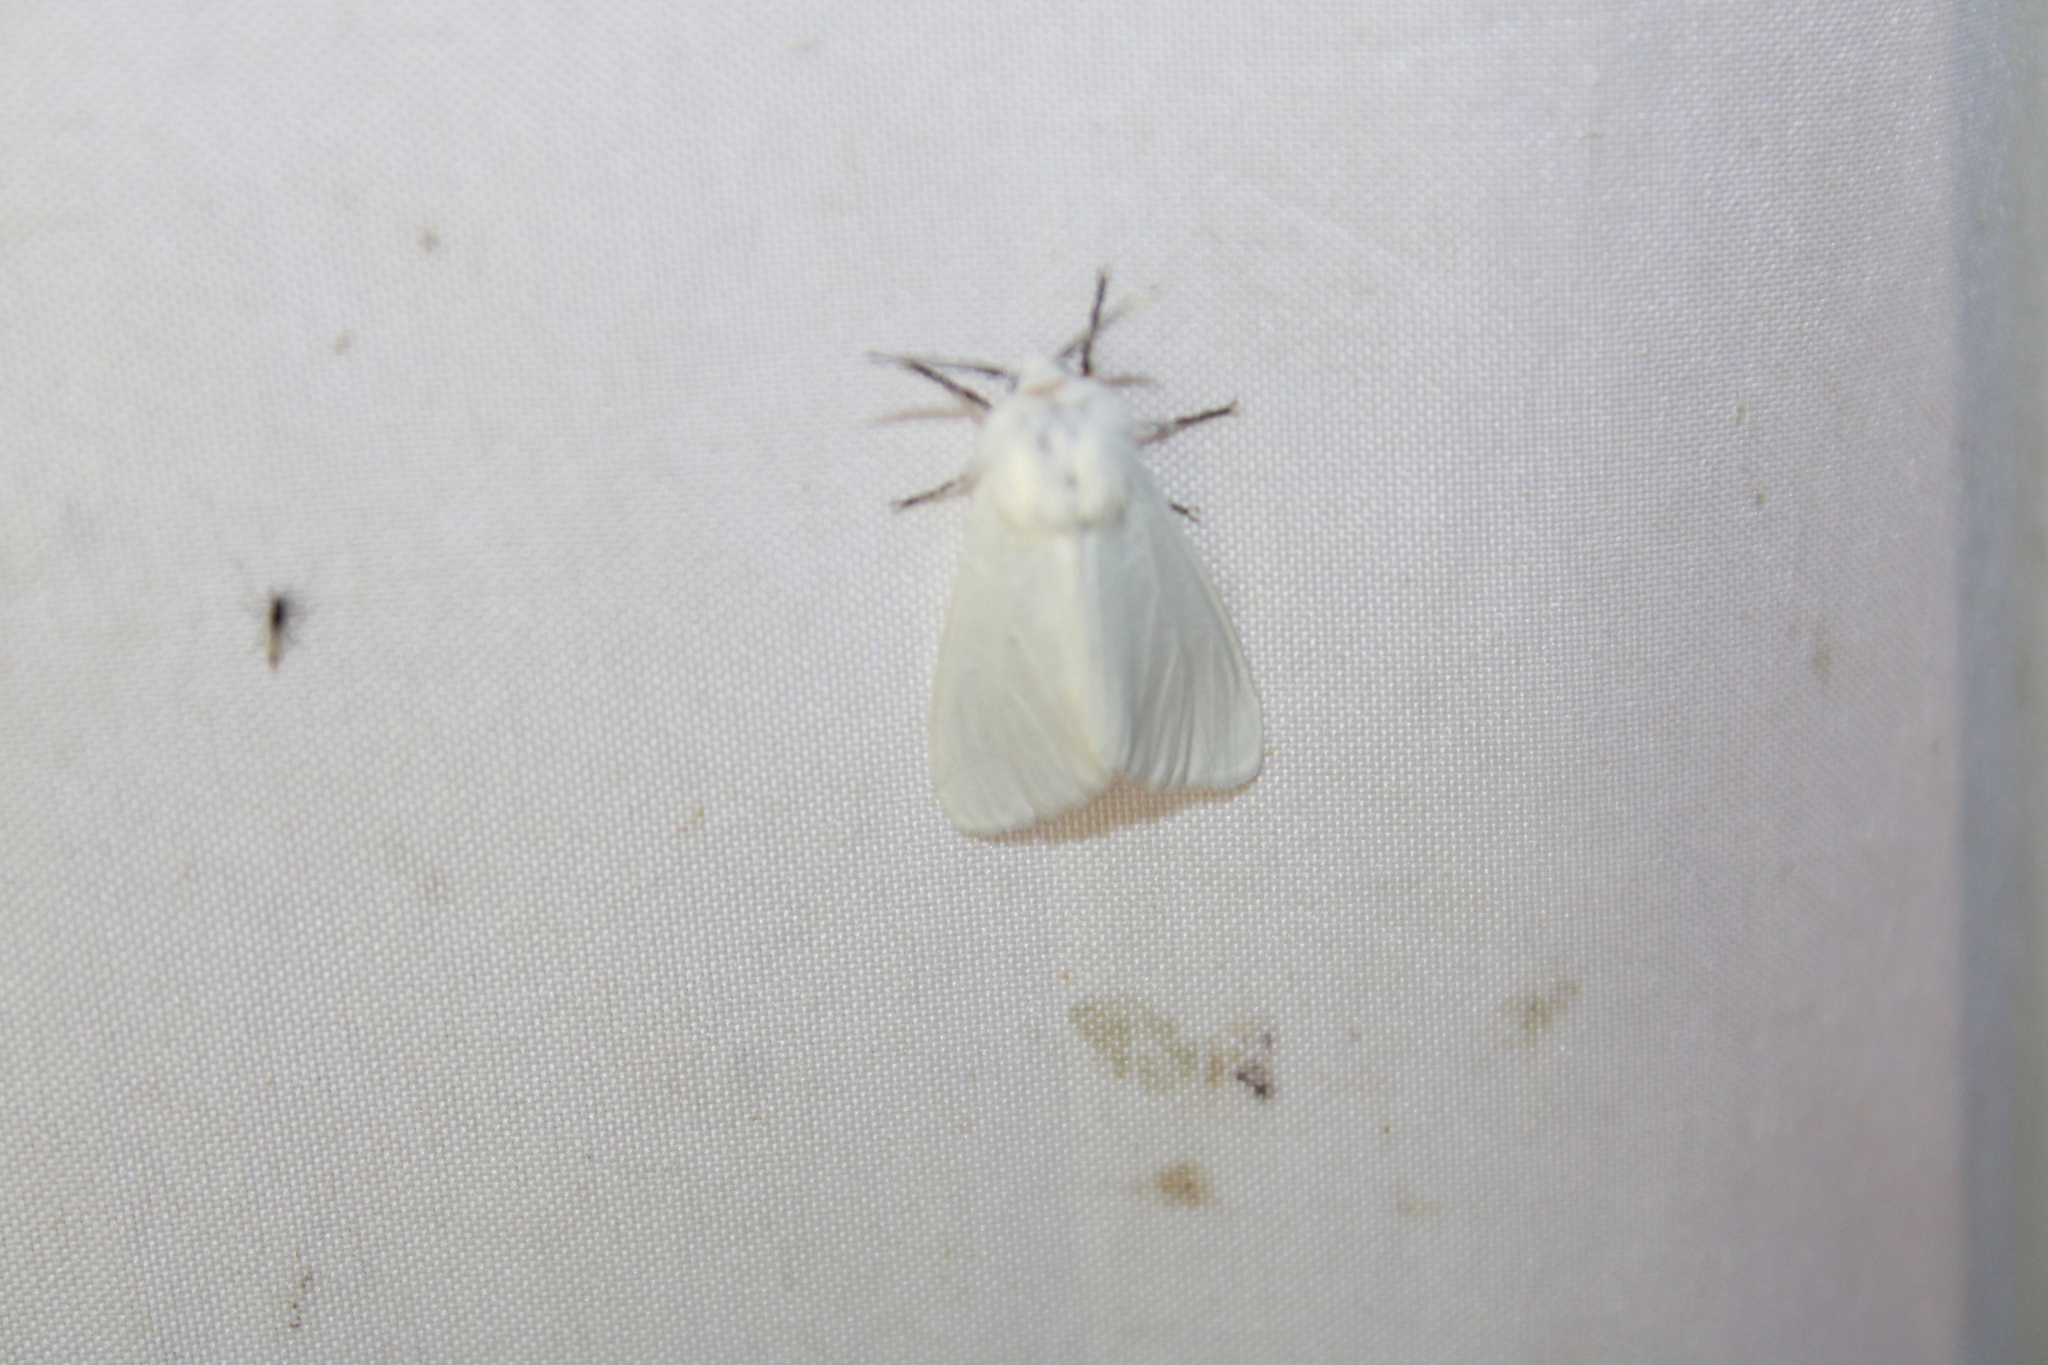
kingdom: Animalia
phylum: Arthropoda
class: Insecta
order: Lepidoptera
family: Erebidae
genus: Hyphantria
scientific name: Hyphantria cunea
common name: American white moth
